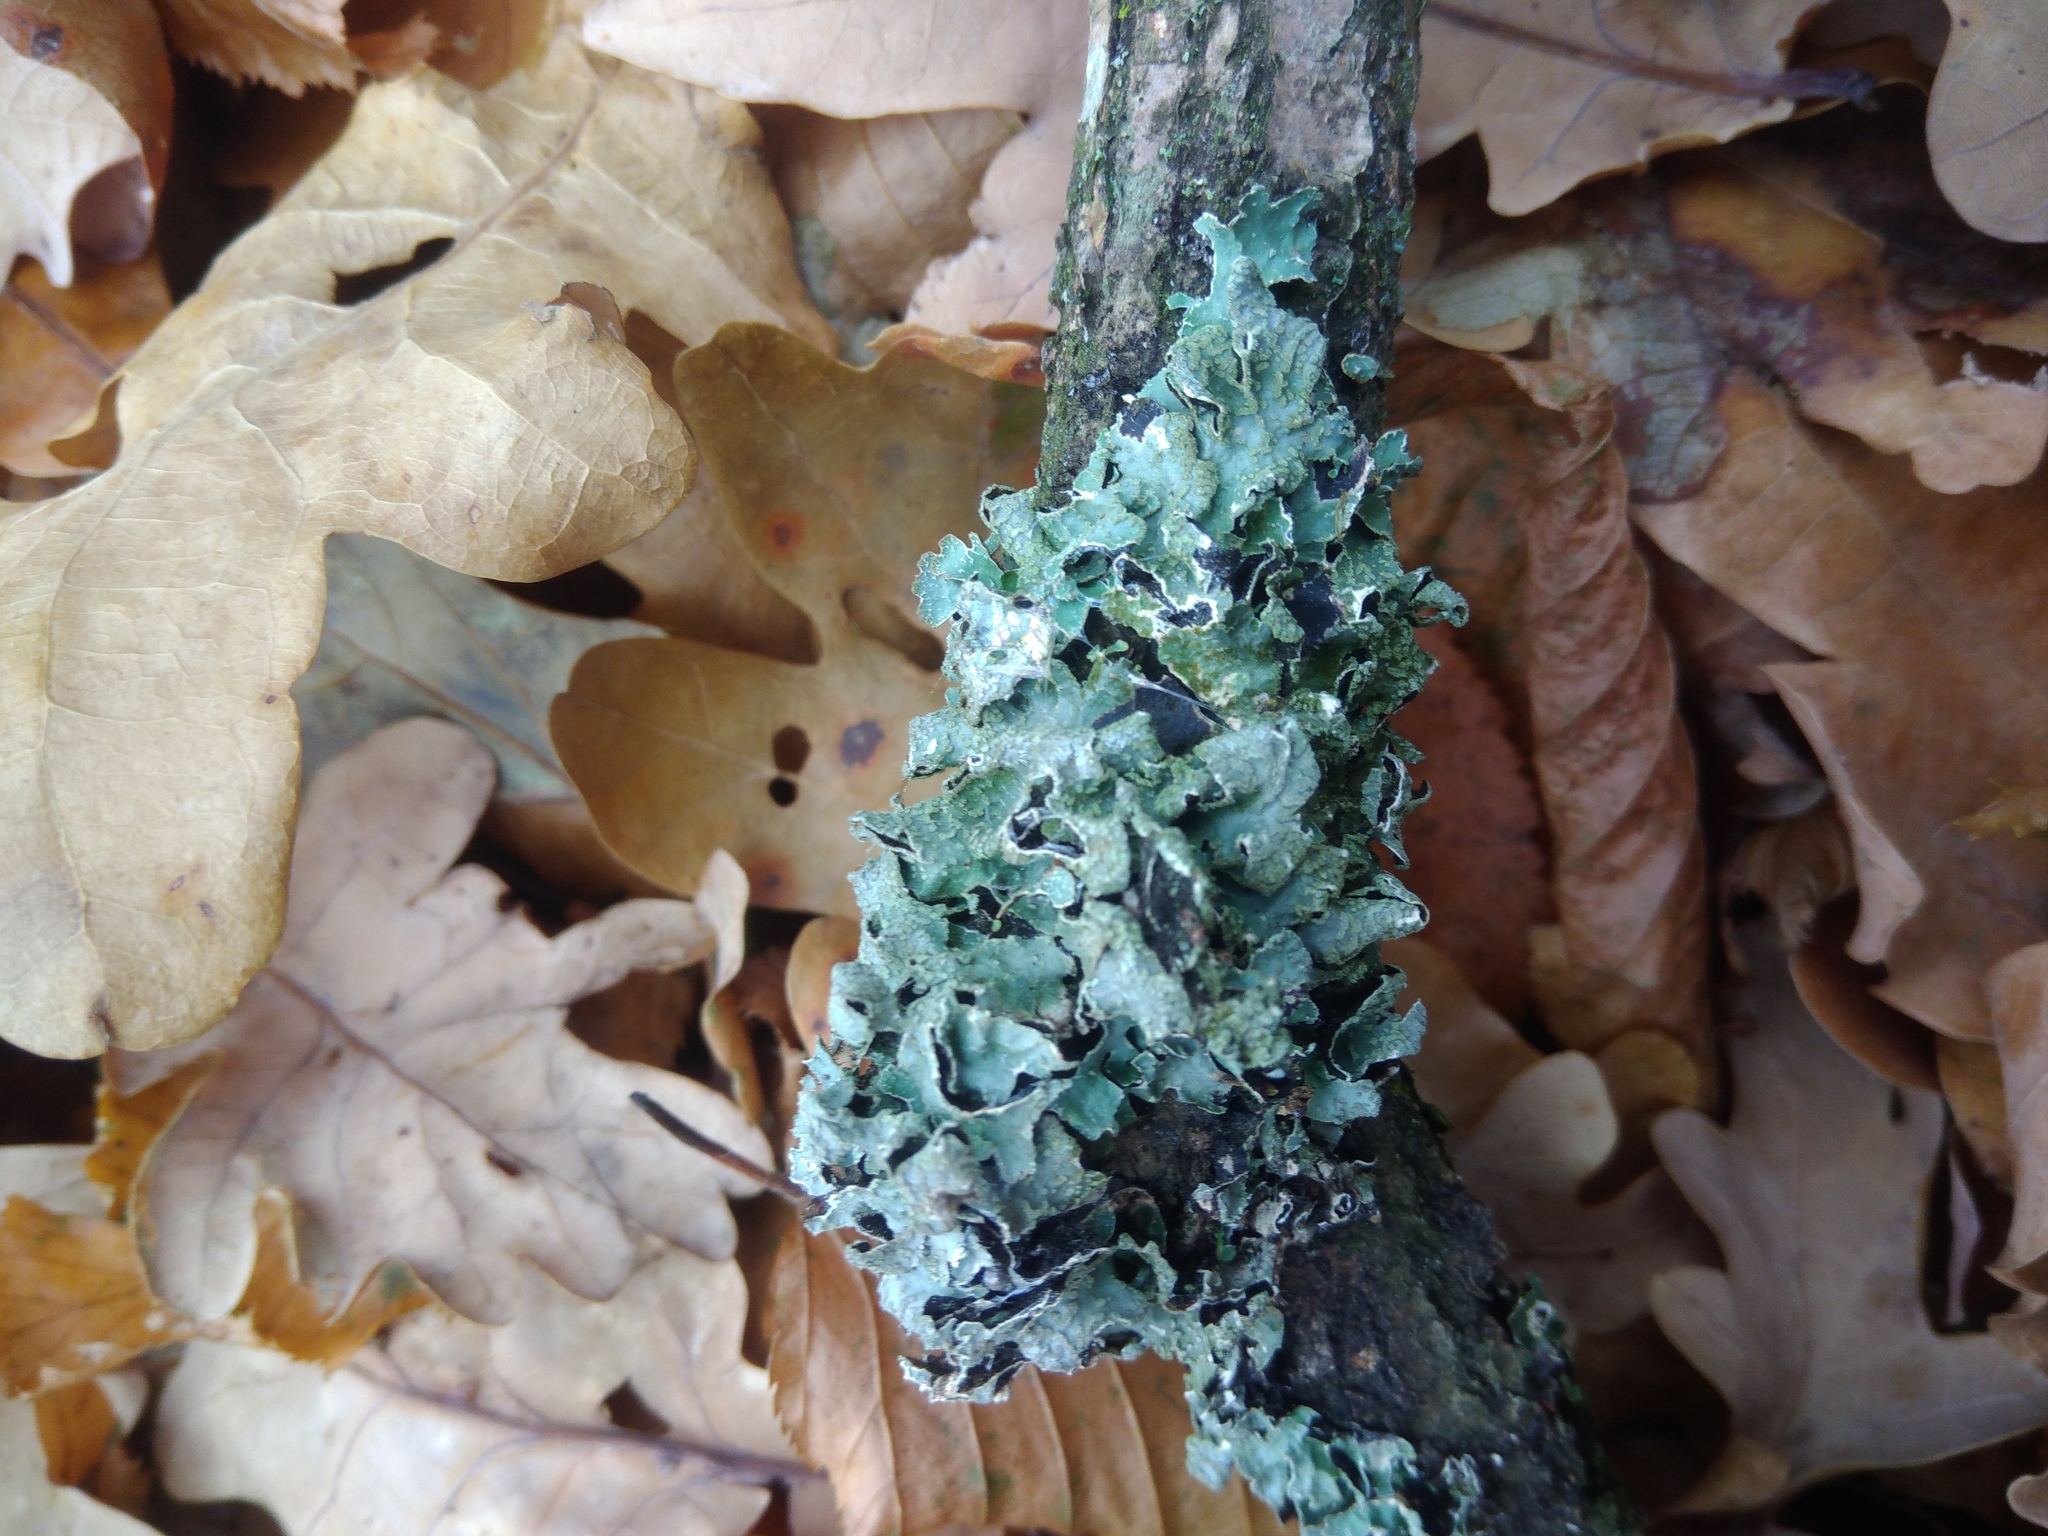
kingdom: Fungi
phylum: Ascomycota
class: Lecanoromycetes
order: Lecanorales
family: Parmeliaceae
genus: Parmelia
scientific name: Parmelia sulcata
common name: Netted shield lichen
